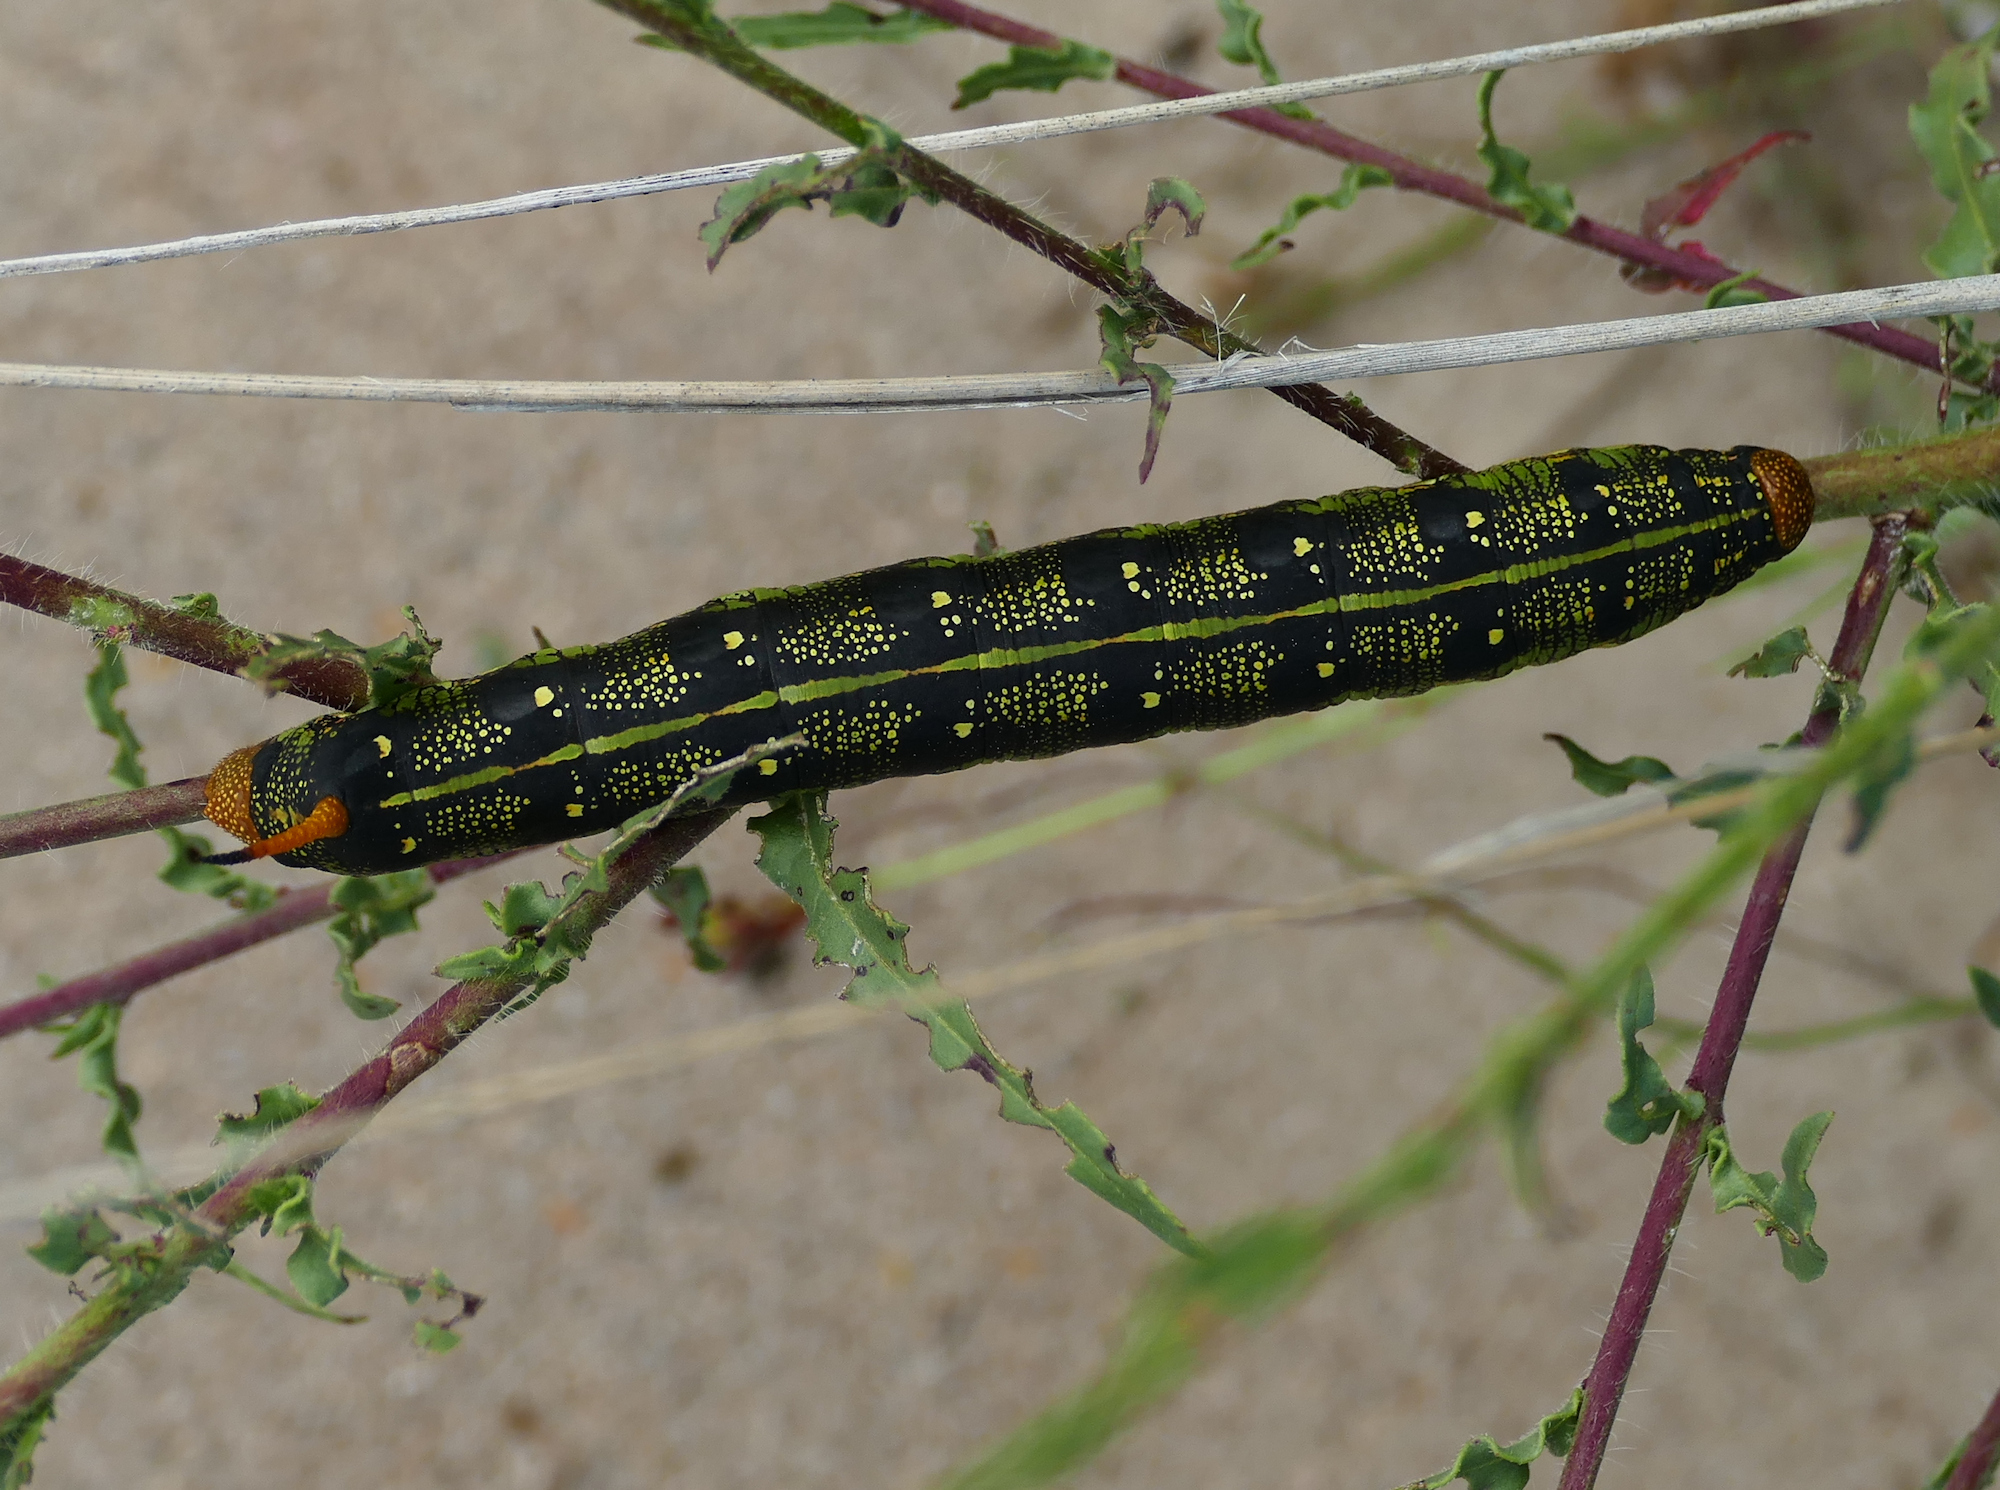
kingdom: Animalia
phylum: Arthropoda
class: Insecta
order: Lepidoptera
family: Sphingidae
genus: Hyles
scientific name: Hyles lineata
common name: White-lined sphinx
